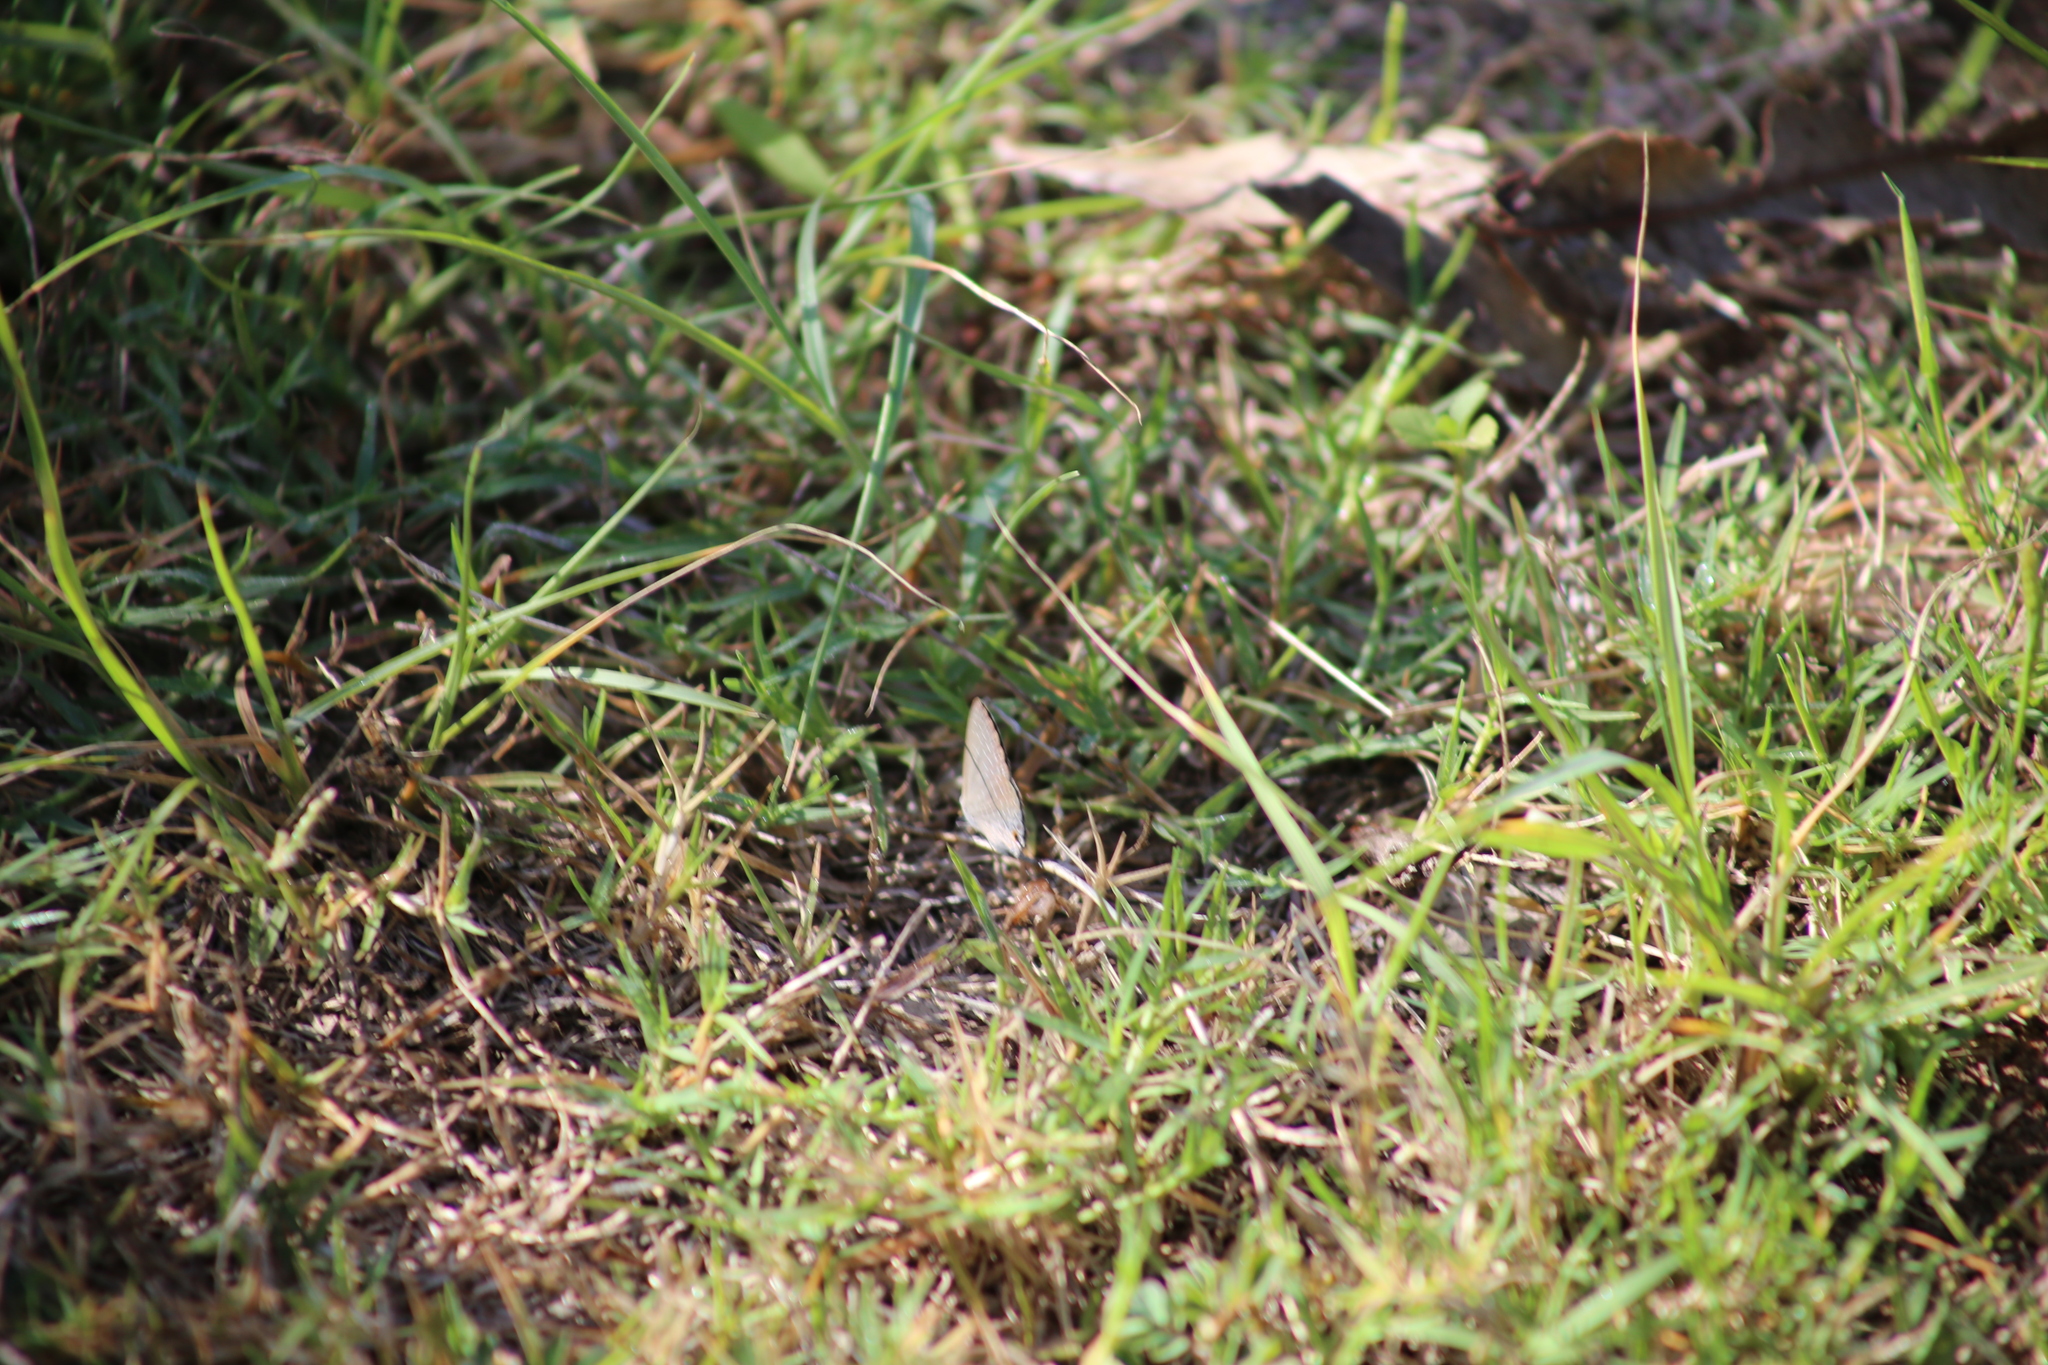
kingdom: Animalia
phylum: Arthropoda
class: Insecta
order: Lepidoptera
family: Lycaenidae
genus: Jamides
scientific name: Jamides phaseli
